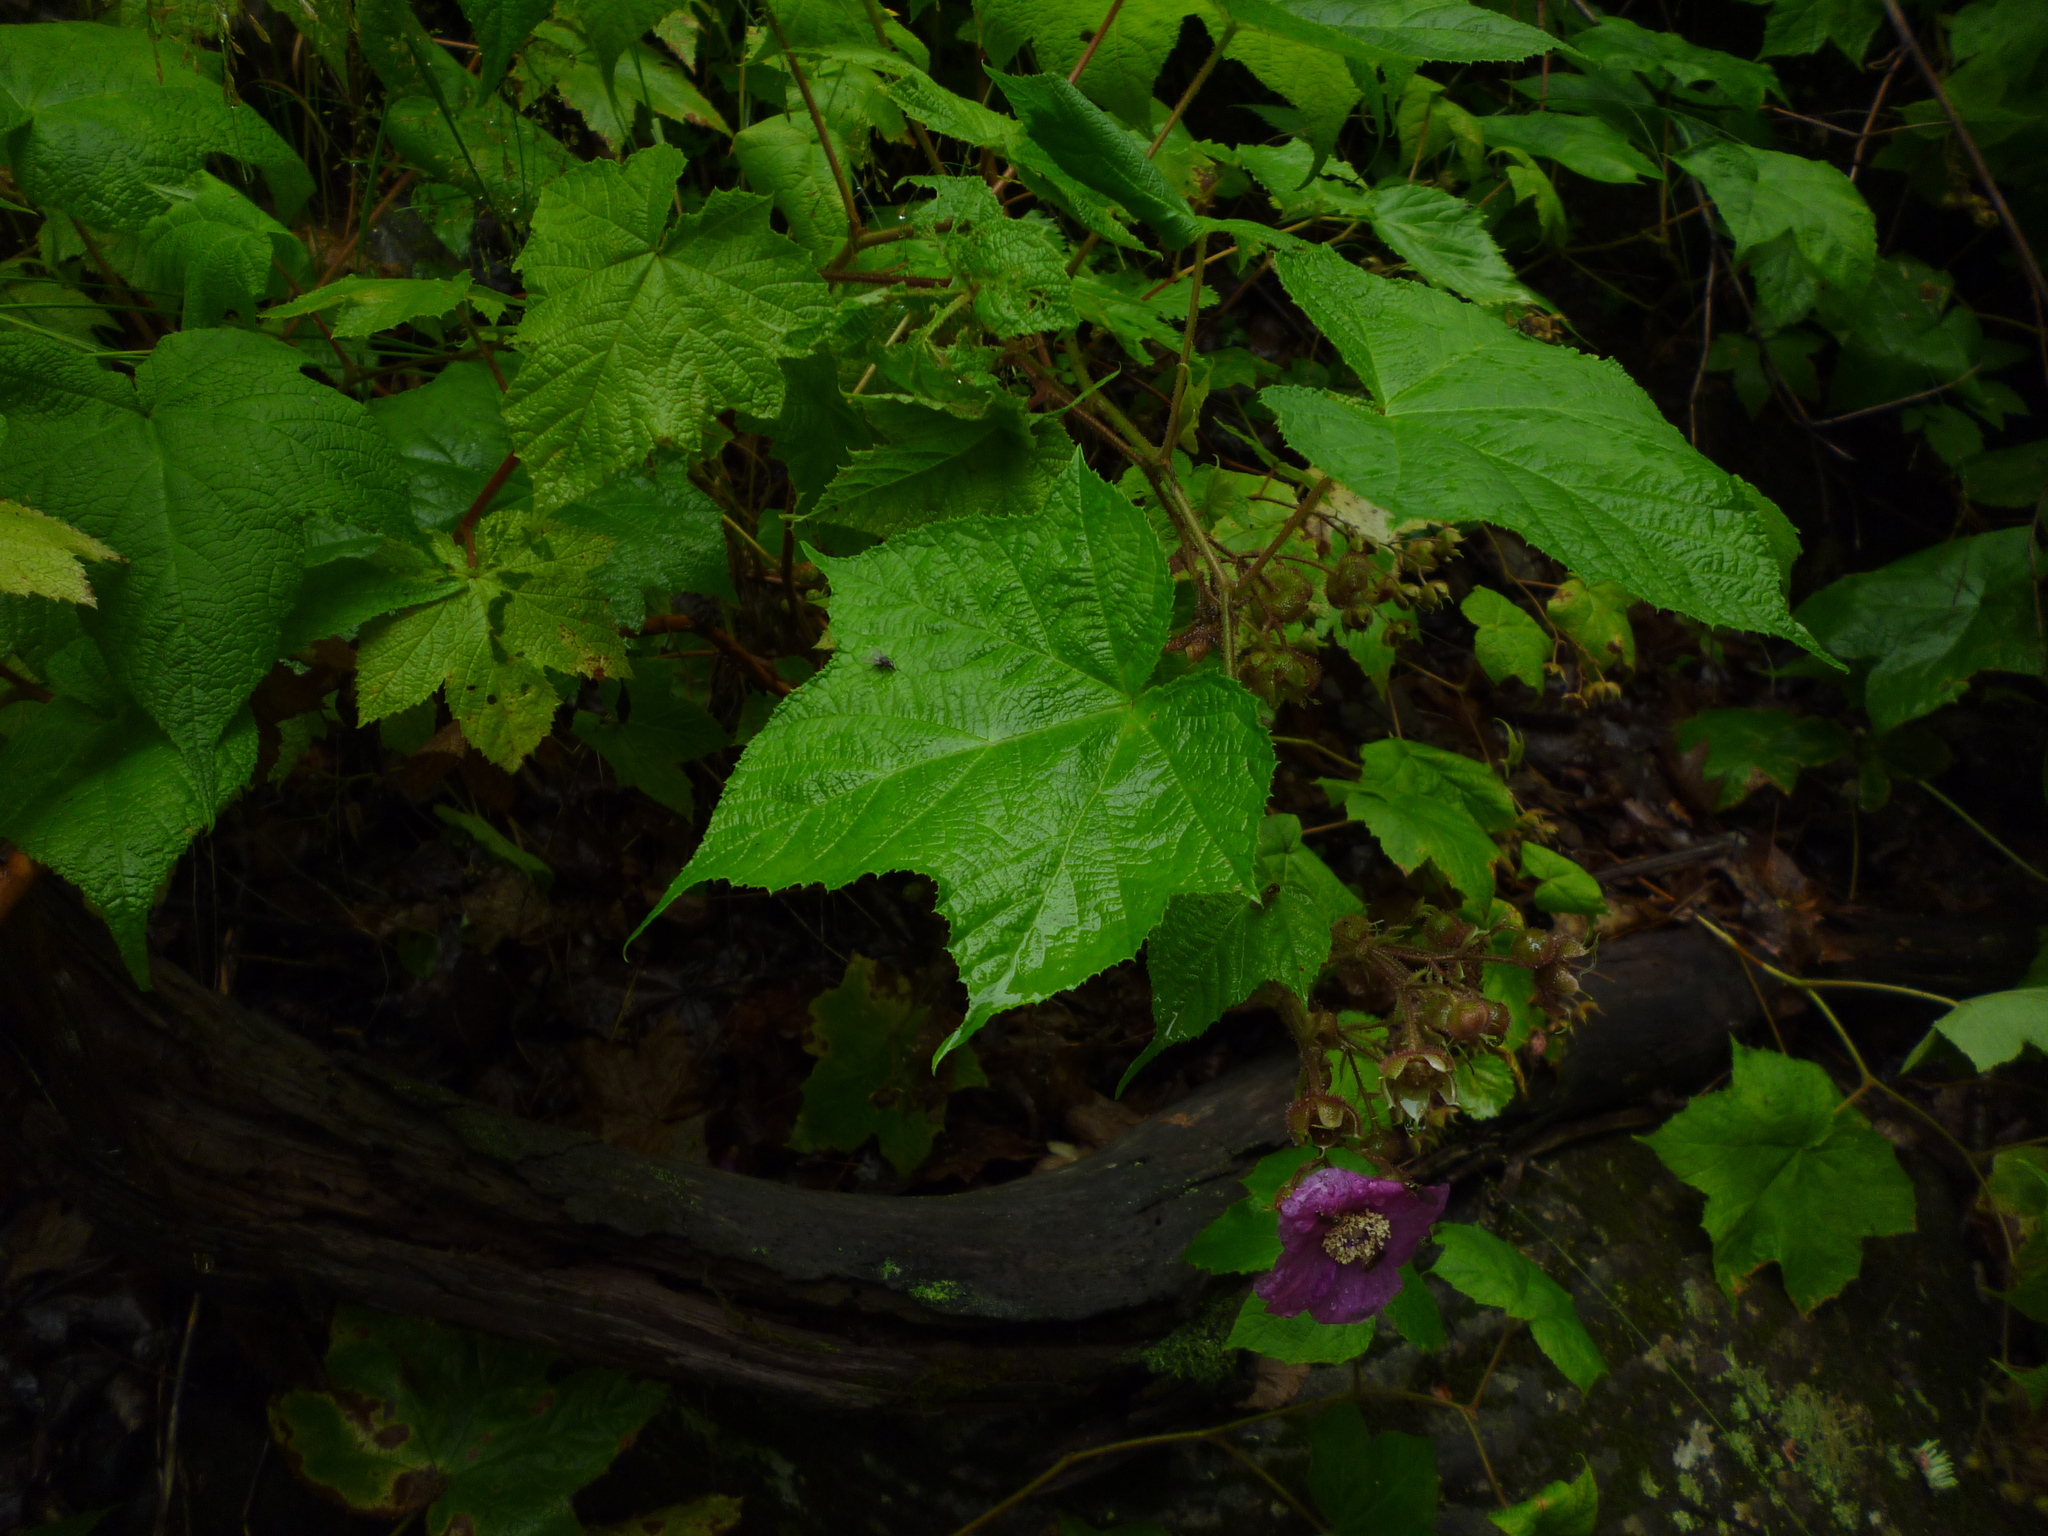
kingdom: Plantae
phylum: Tracheophyta
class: Magnoliopsida
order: Rosales
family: Rosaceae
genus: Rubus
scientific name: Rubus odoratus
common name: Purple-flowered raspberry
